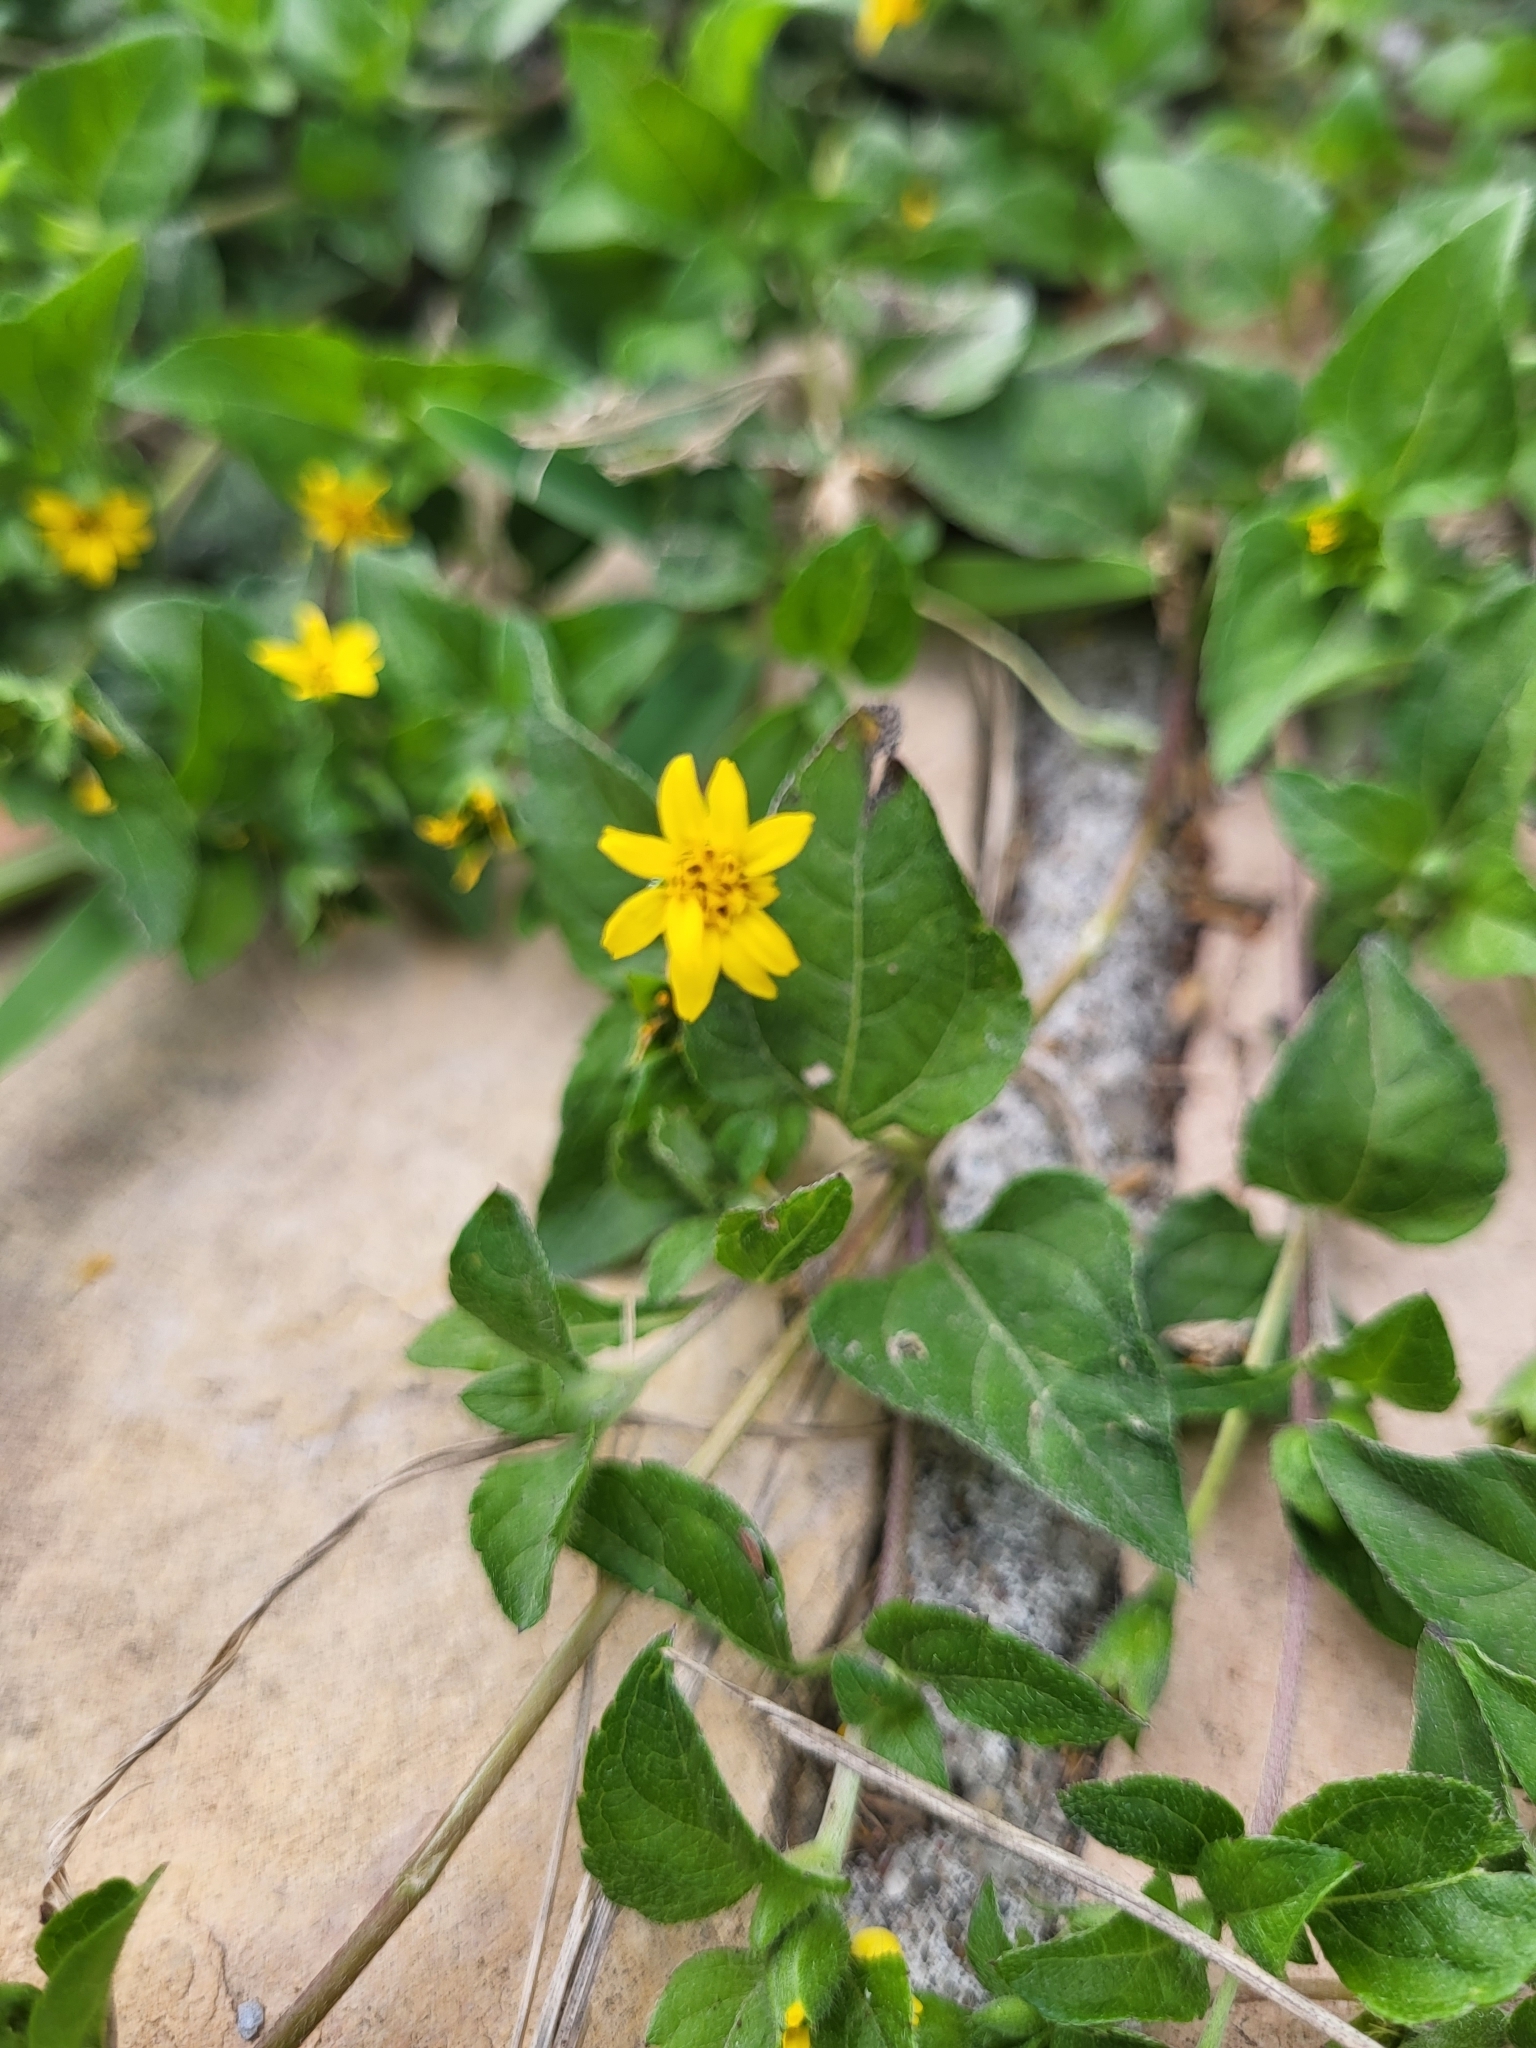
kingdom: Plantae
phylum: Tracheophyta
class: Magnoliopsida
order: Asterales
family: Asteraceae
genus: Calyptocarpus
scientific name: Calyptocarpus vialis
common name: Straggler daisy
